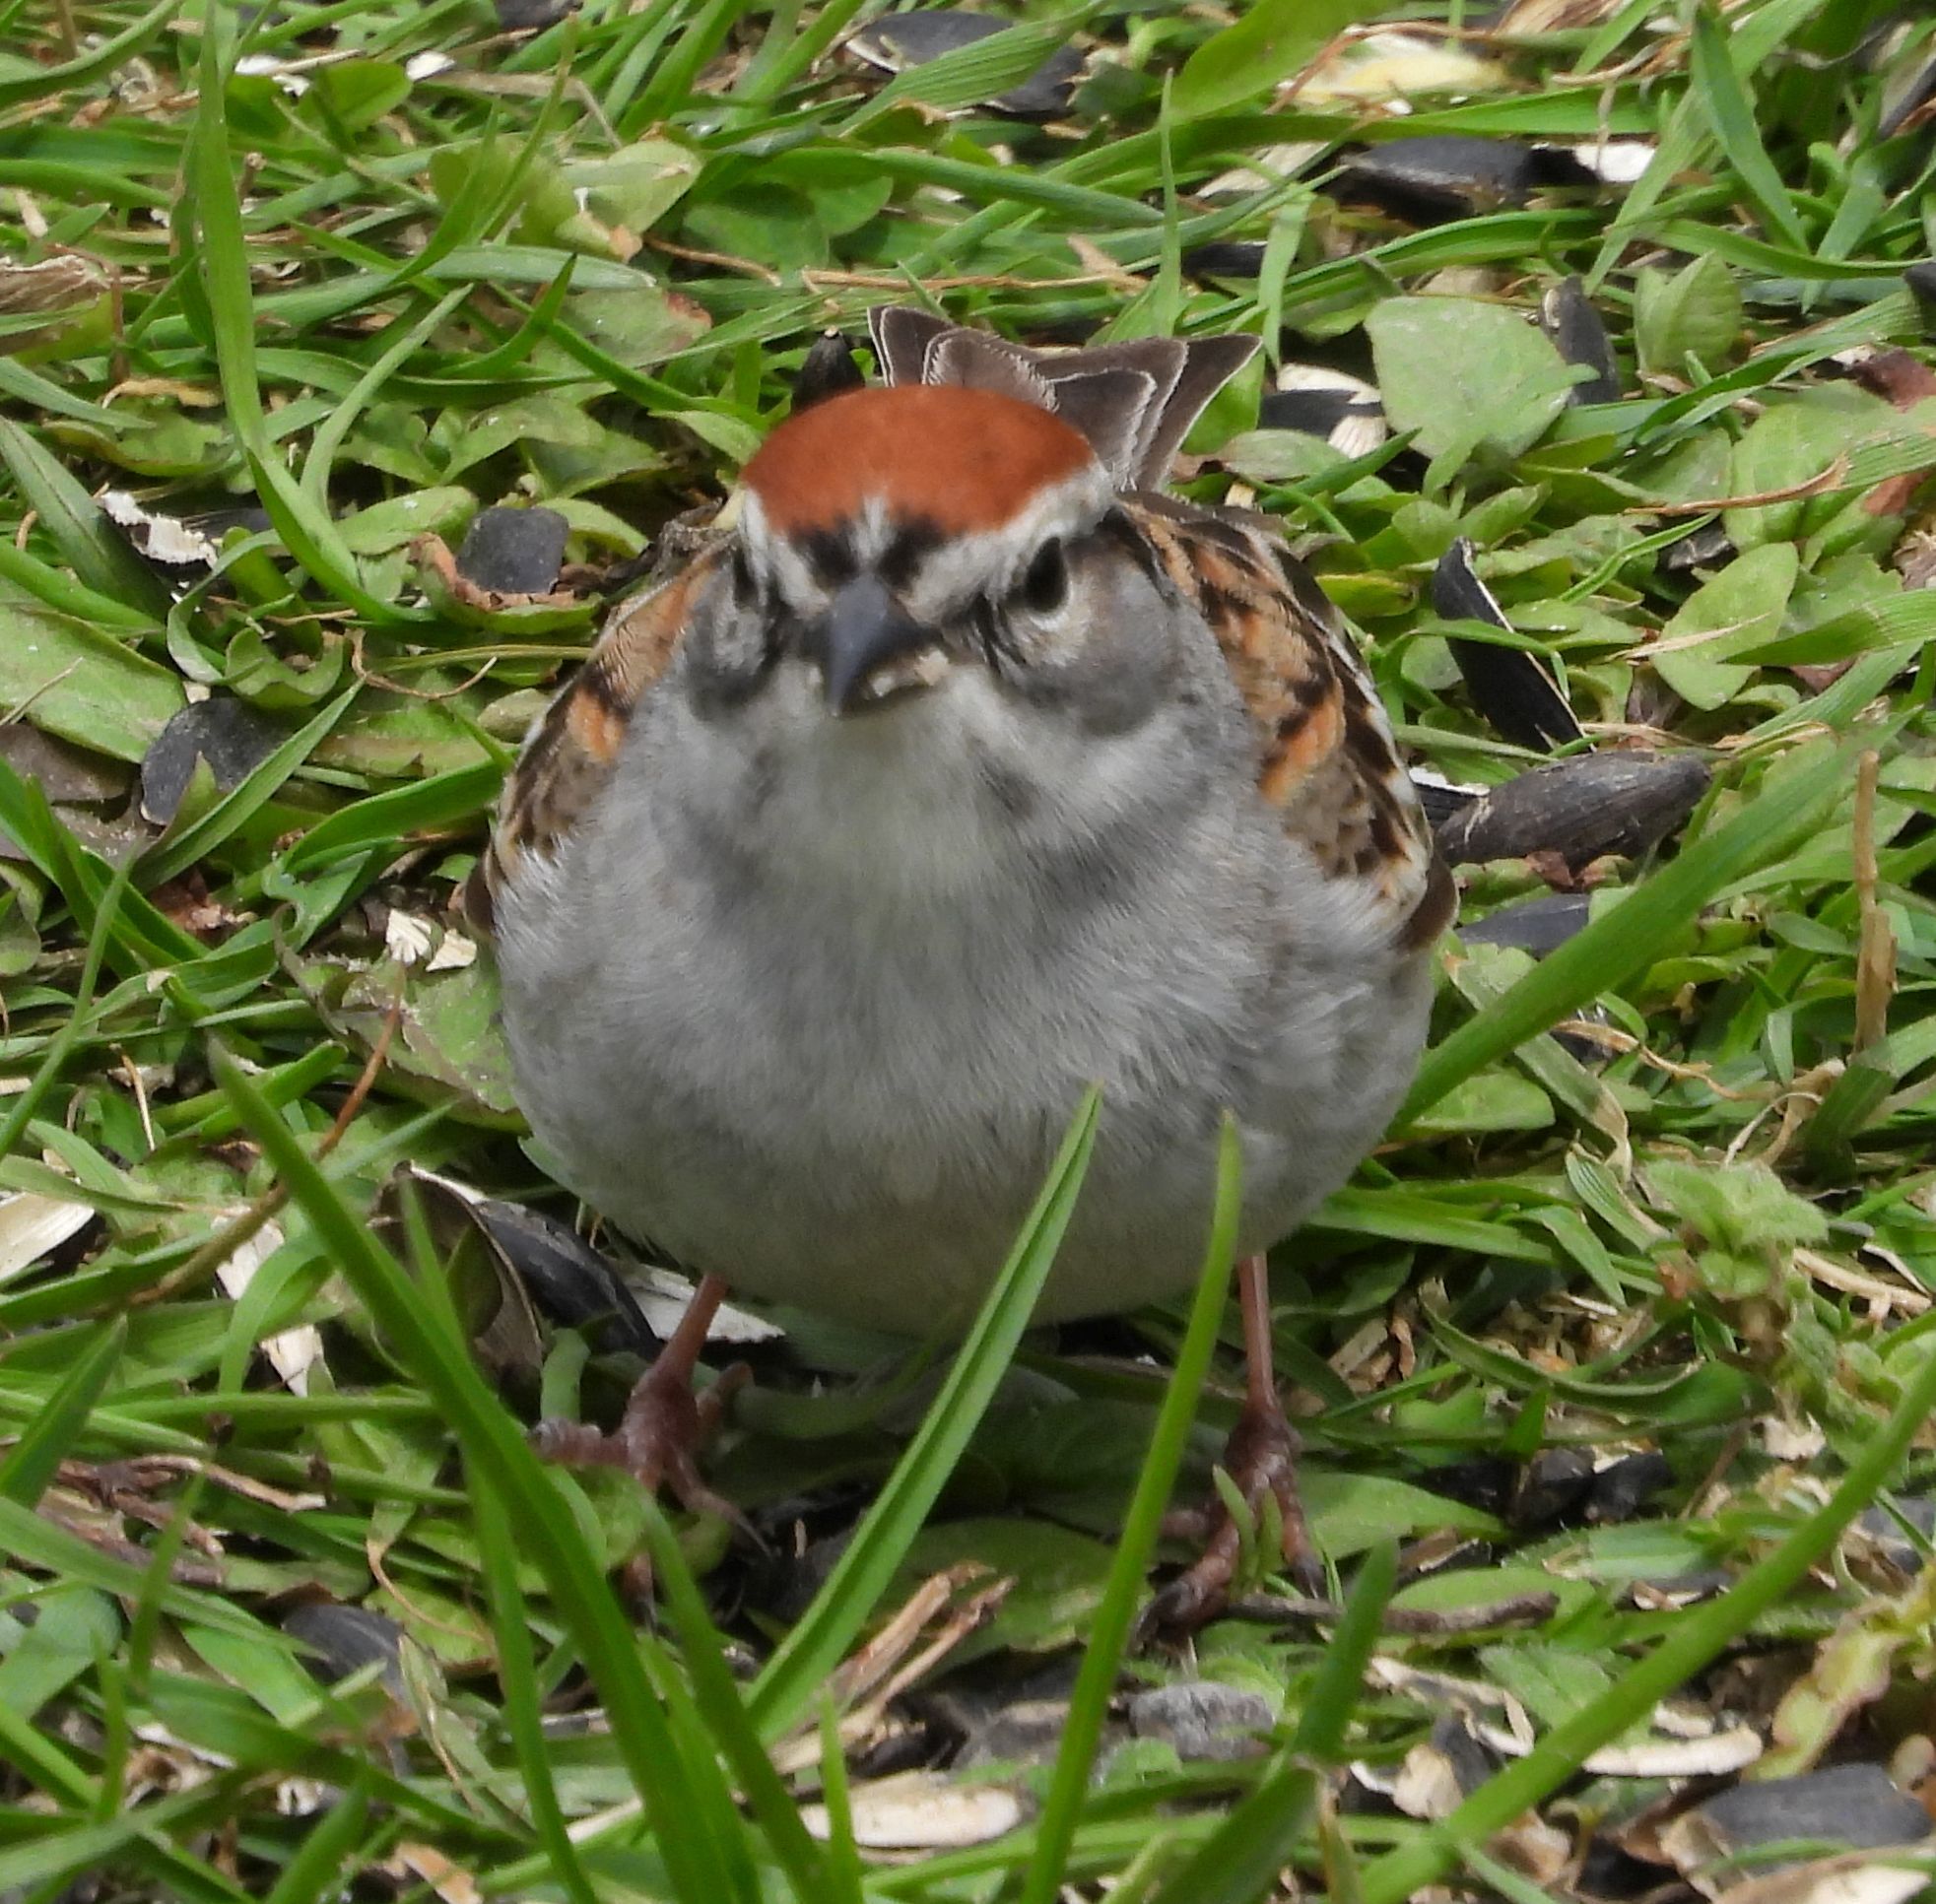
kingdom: Animalia
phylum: Chordata
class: Aves
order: Passeriformes
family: Passerellidae
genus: Spizella
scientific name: Spizella passerina
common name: Chipping sparrow
